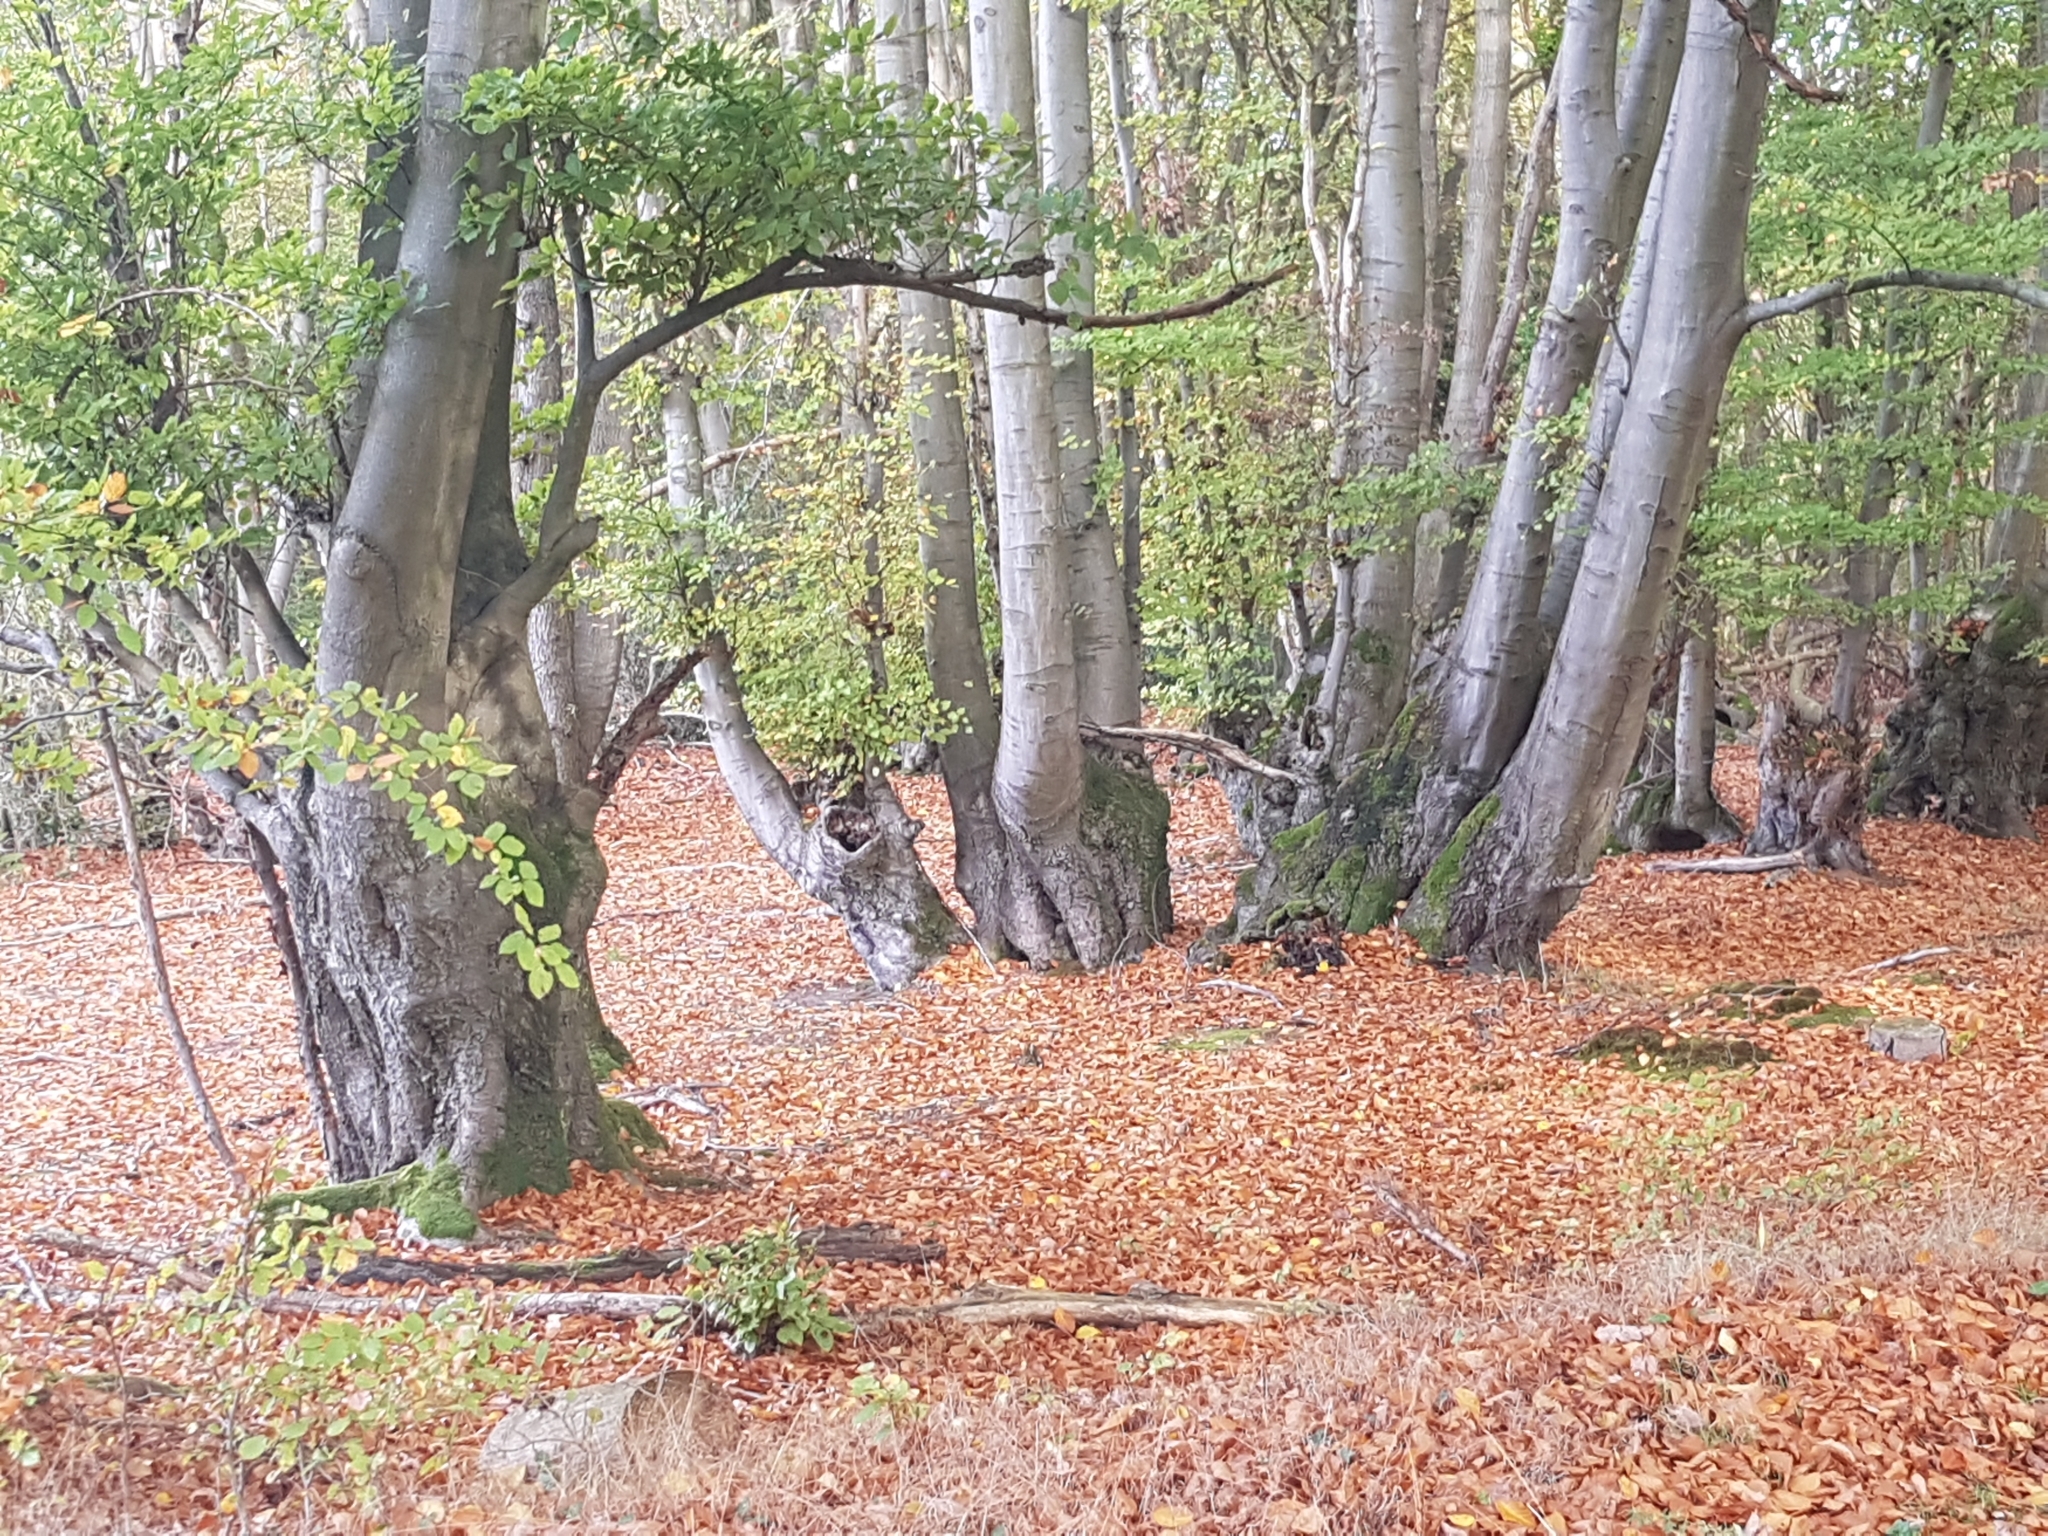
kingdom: Plantae
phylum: Tracheophyta
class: Magnoliopsida
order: Fagales
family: Fagaceae
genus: Fagus
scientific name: Fagus sylvatica
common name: Beech
